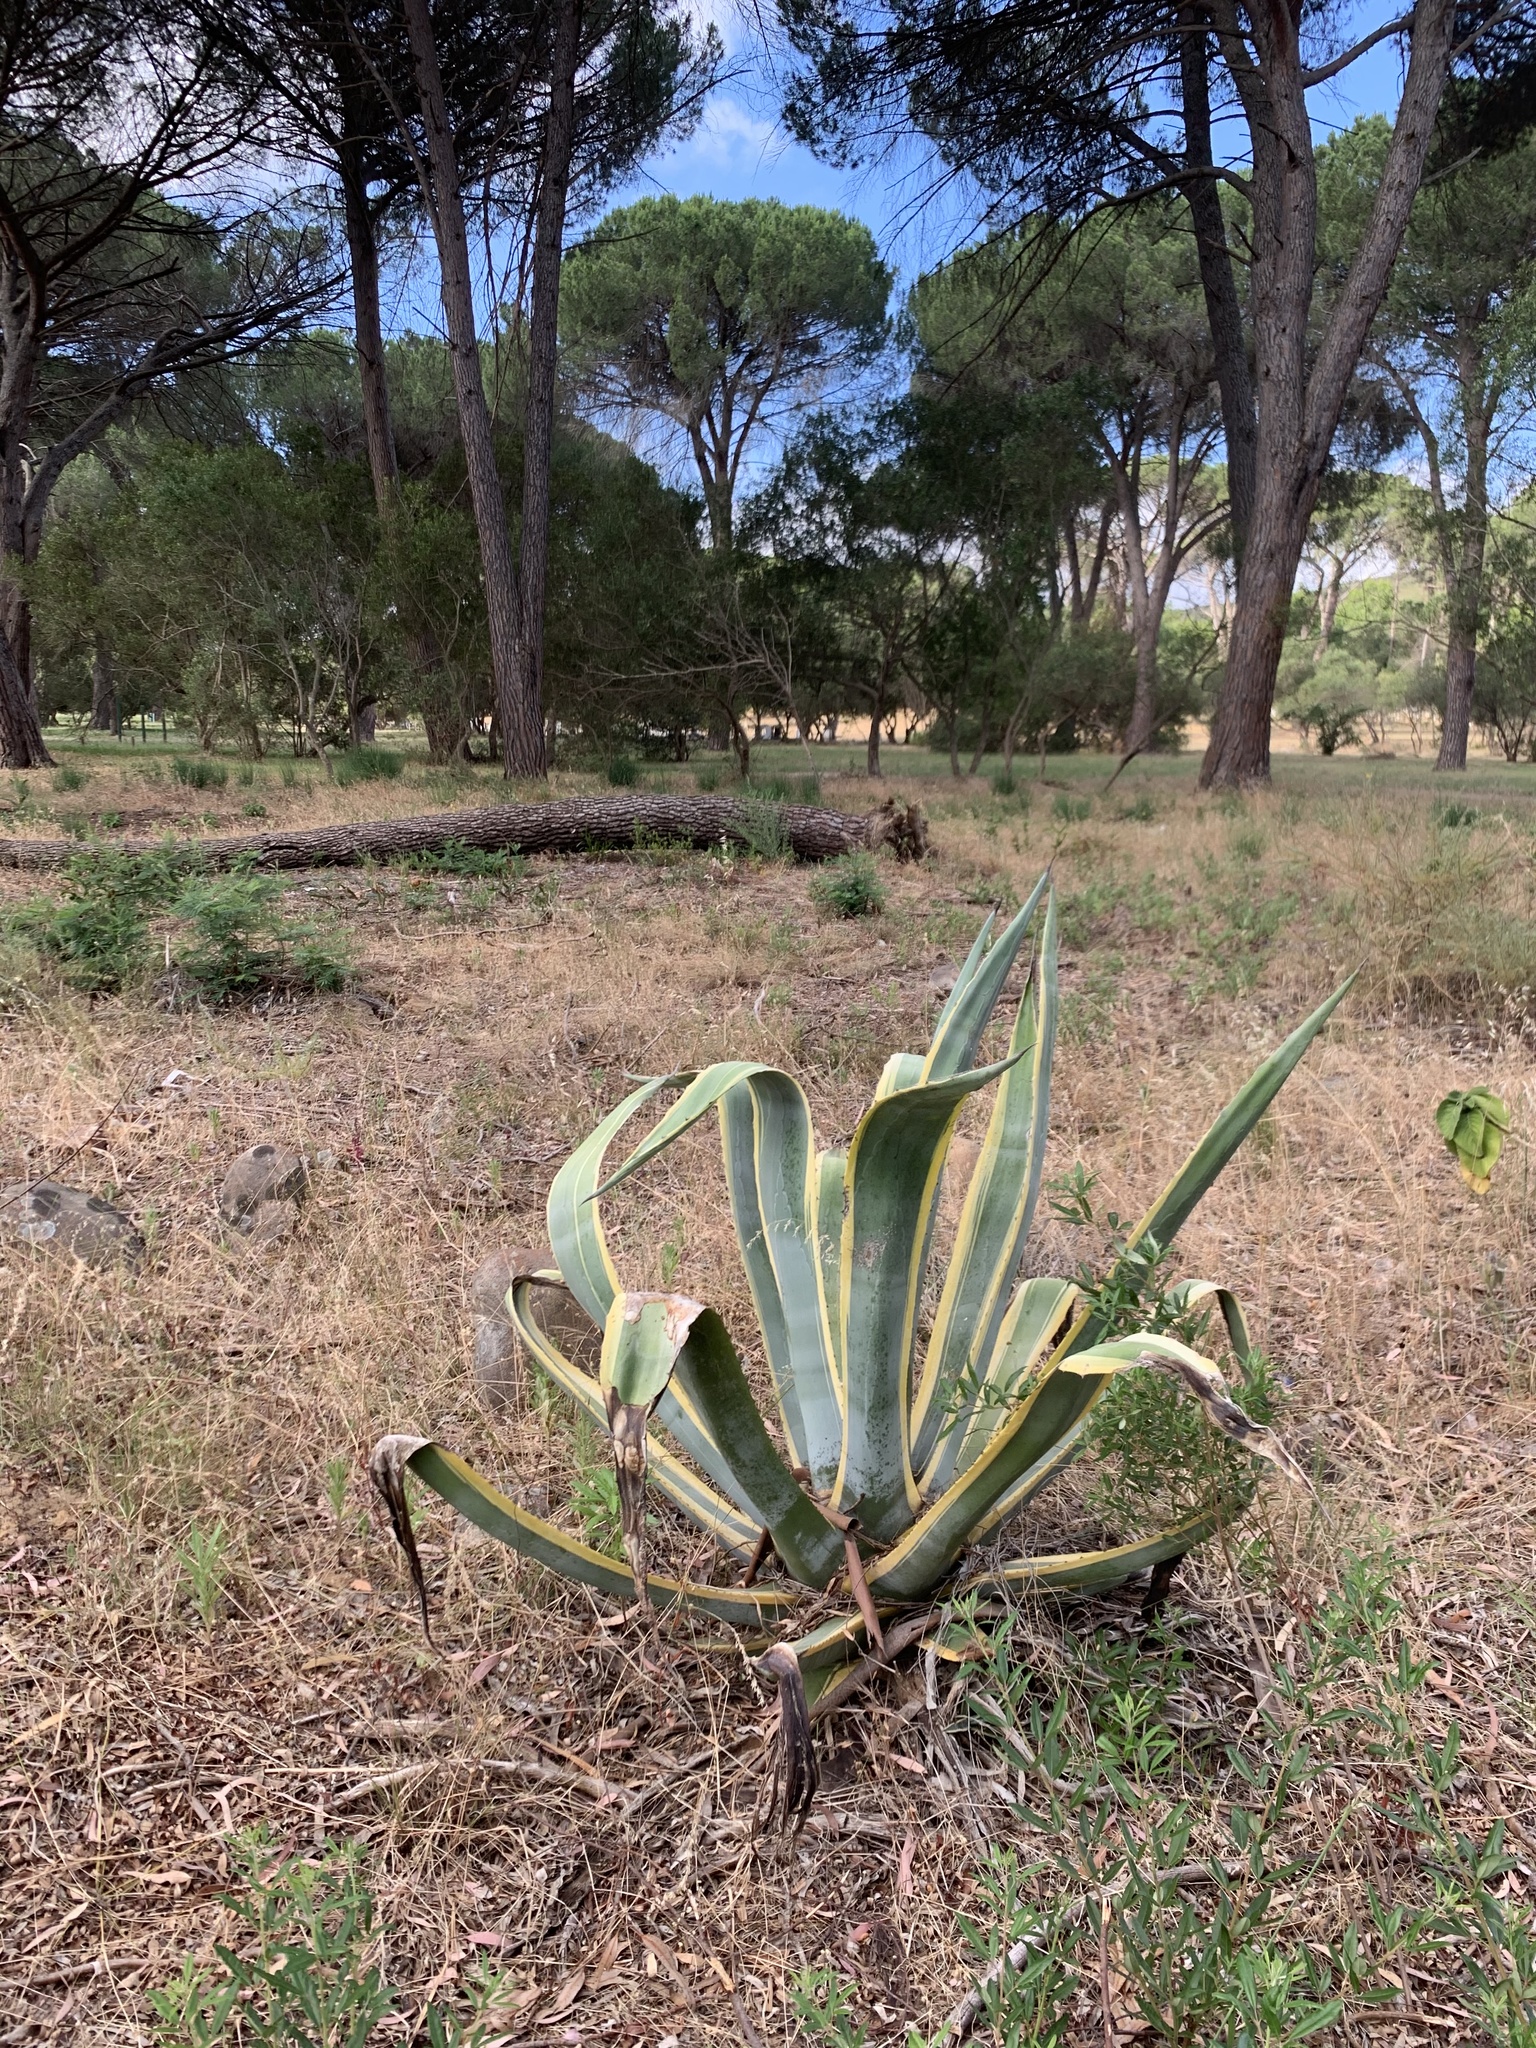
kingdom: Plantae
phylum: Tracheophyta
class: Liliopsida
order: Asparagales
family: Asparagaceae
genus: Agave
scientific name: Agave americana
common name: Centuryplant
